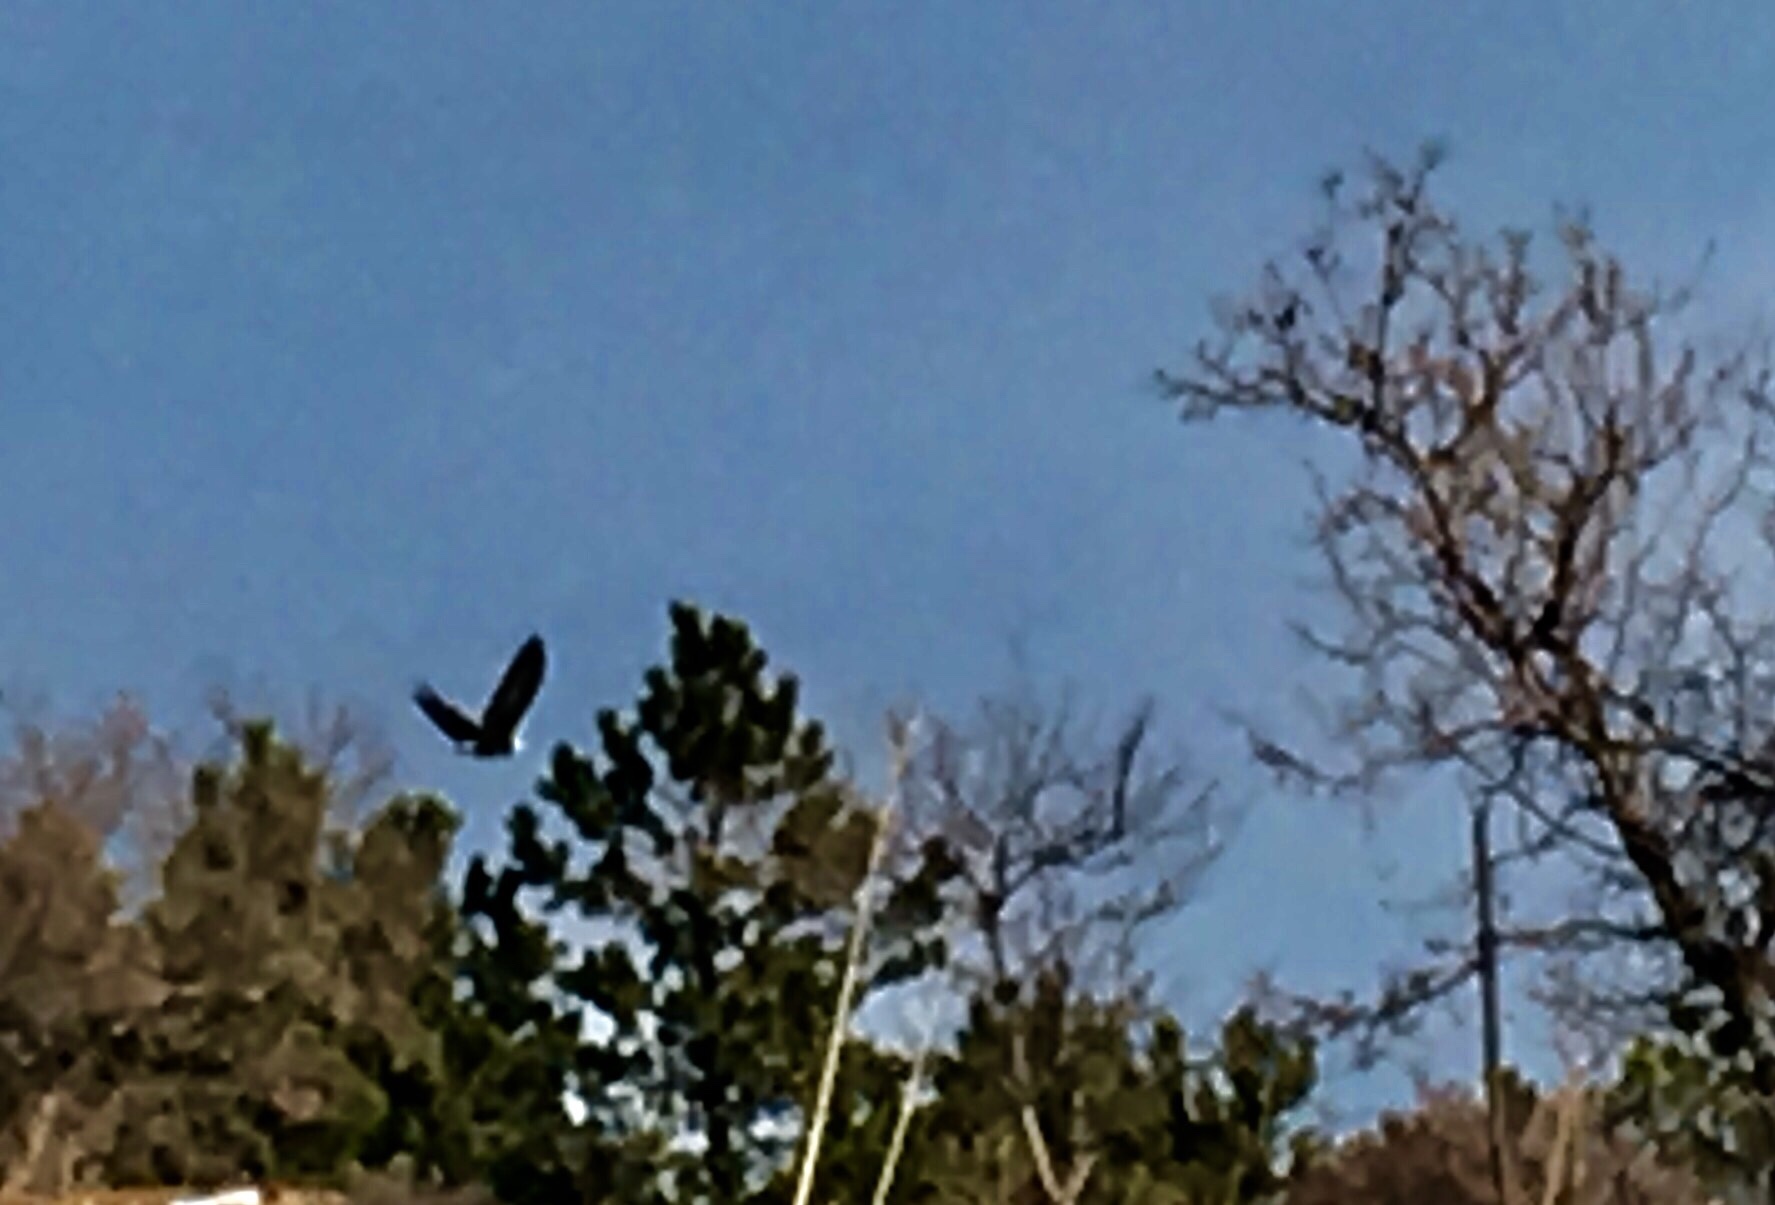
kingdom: Animalia
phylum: Chordata
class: Aves
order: Accipitriformes
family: Accipitridae
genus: Haliaeetus
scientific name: Haliaeetus leucocephalus
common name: Bald eagle
